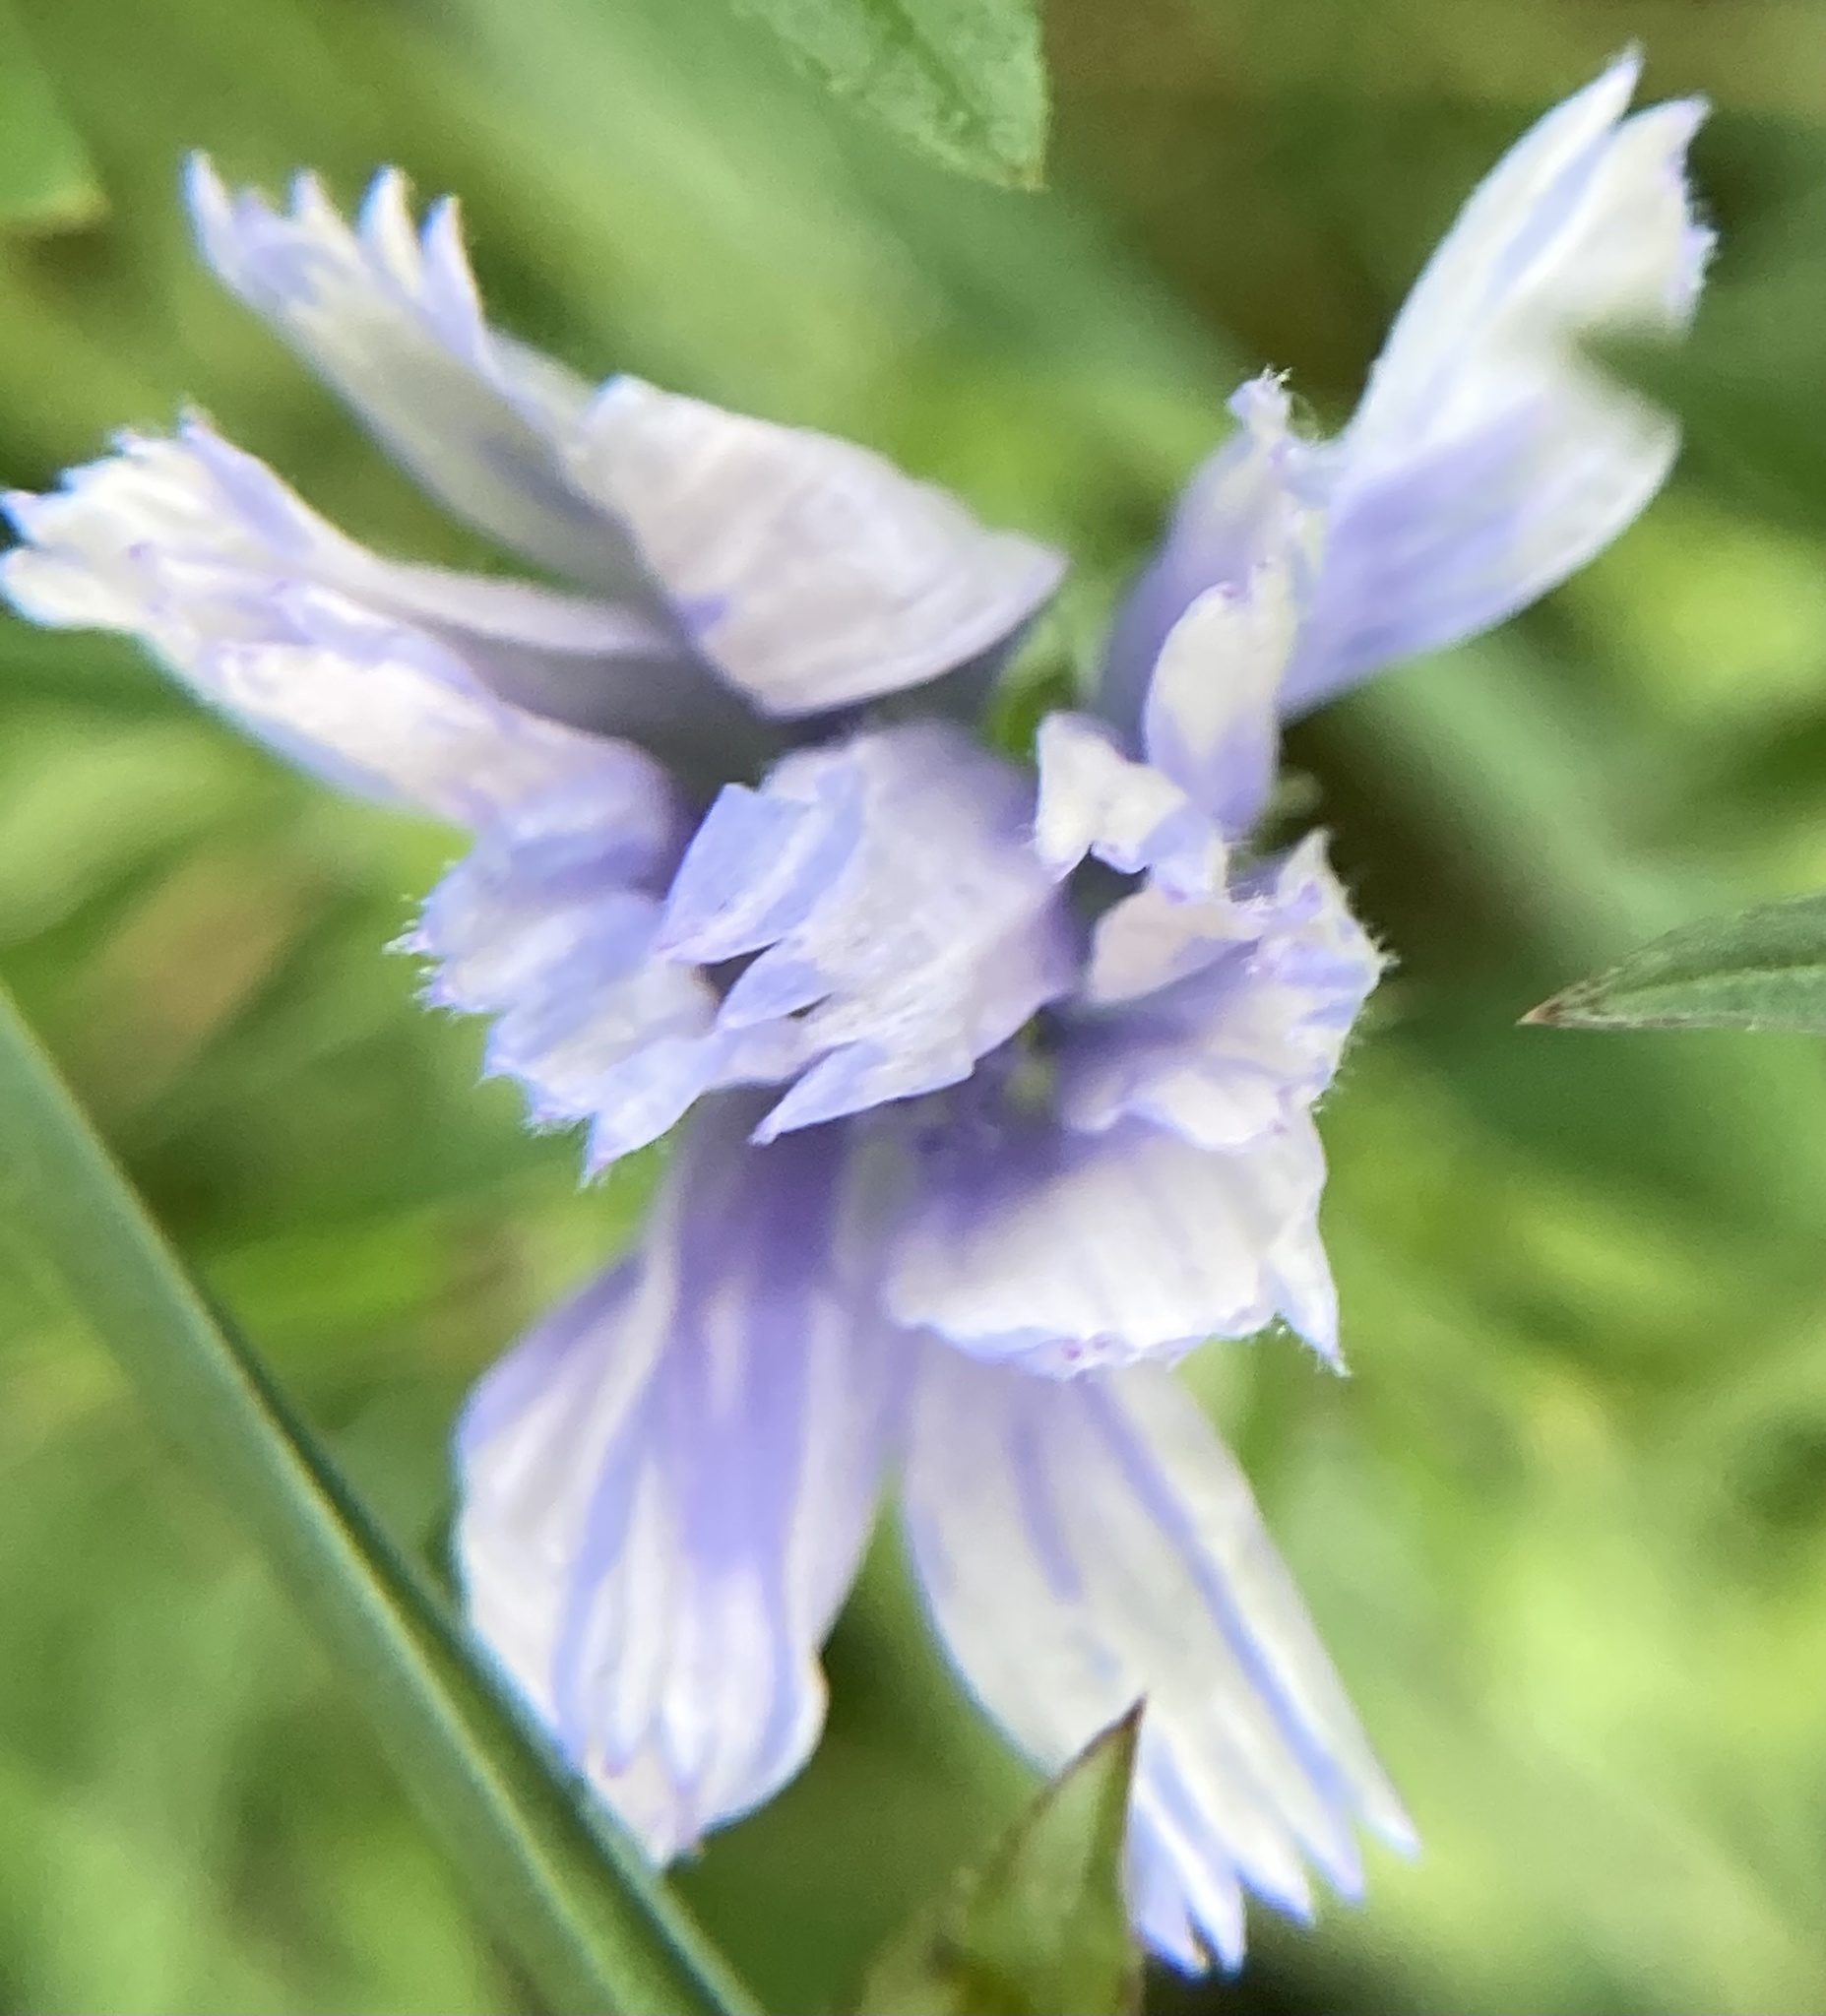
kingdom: Plantae
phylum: Tracheophyta
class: Magnoliopsida
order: Asterales
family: Asteraceae
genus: Cichorium
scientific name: Cichorium intybus
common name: Chicory
